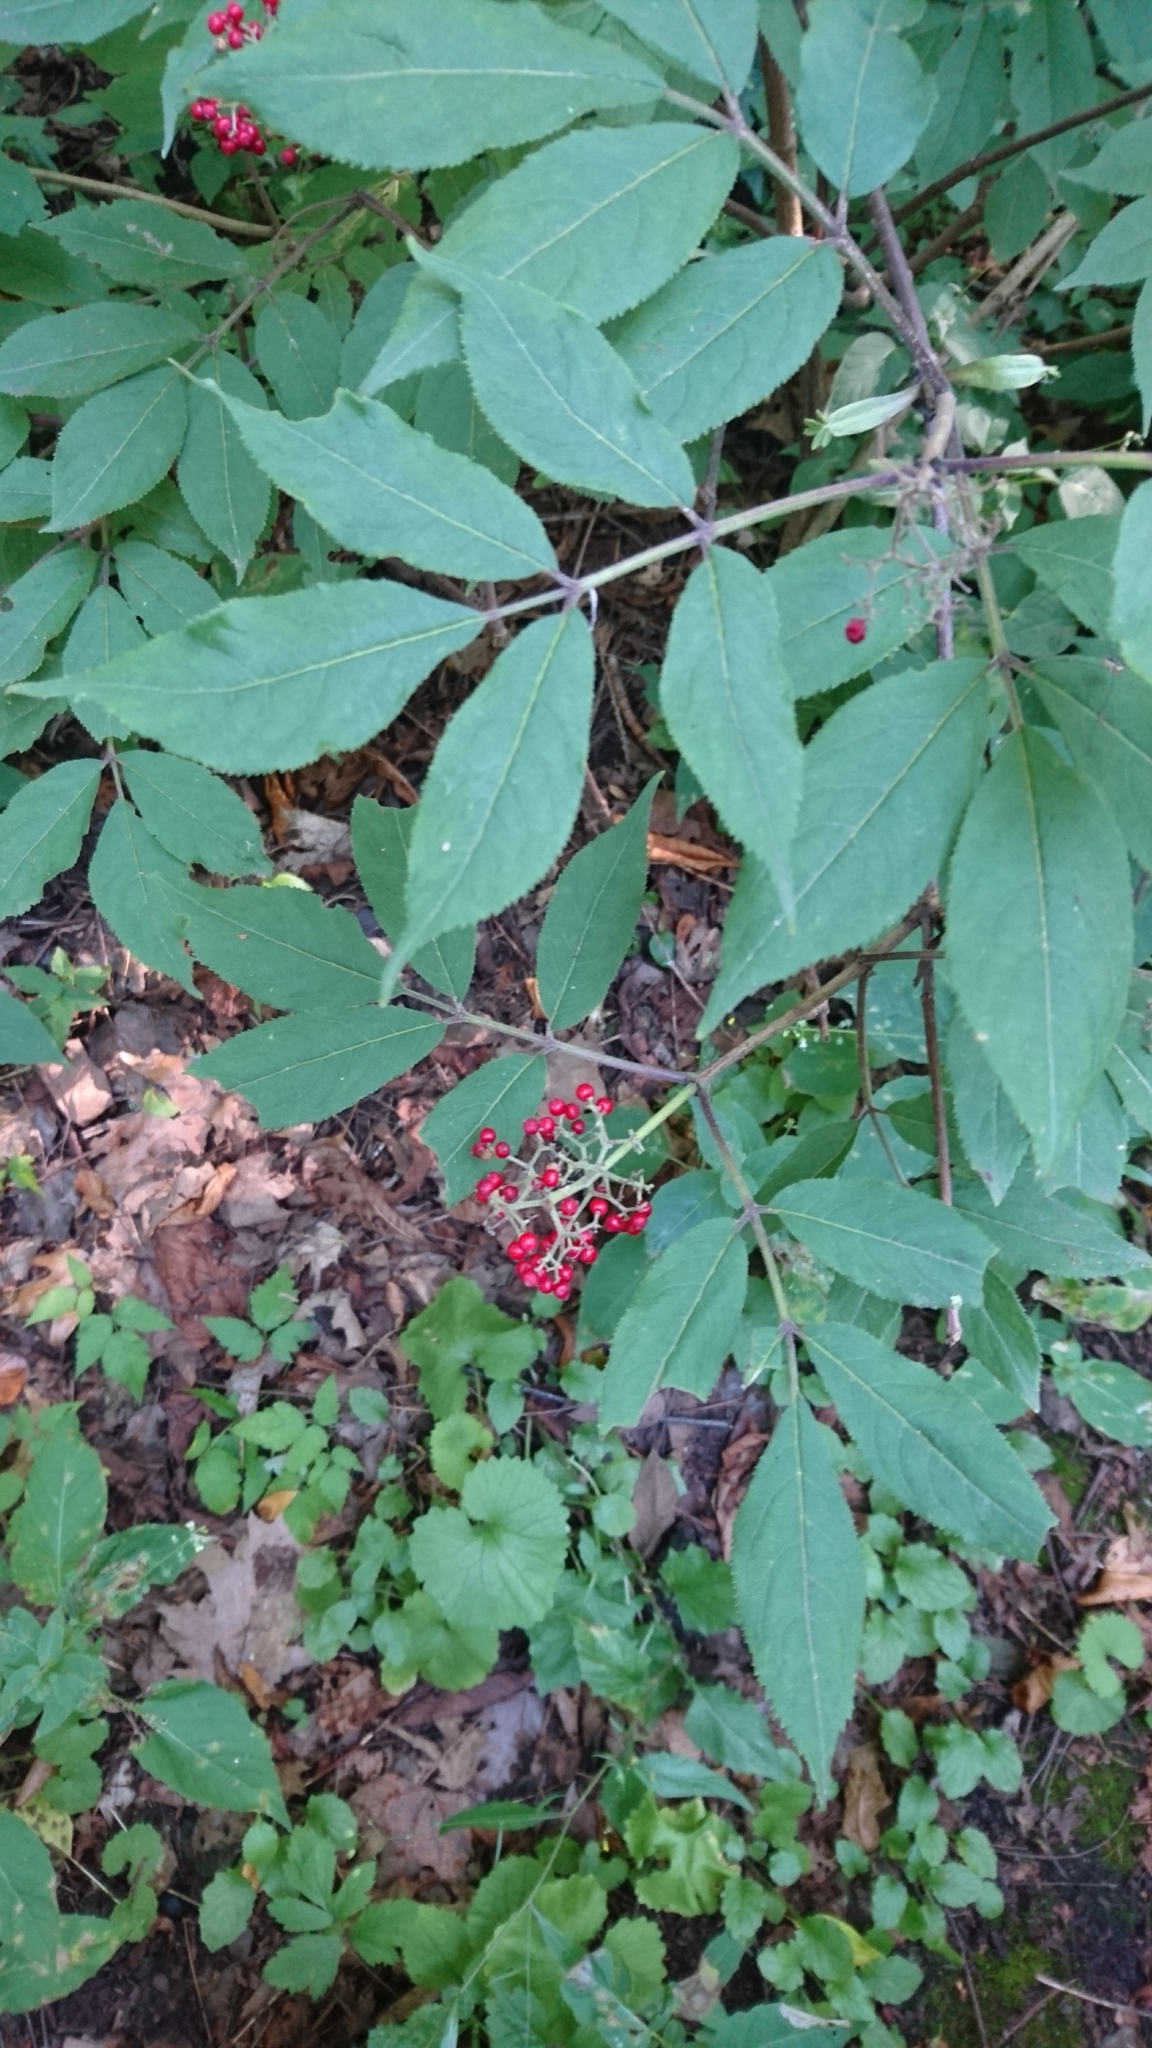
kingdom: Plantae
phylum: Tracheophyta
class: Magnoliopsida
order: Dipsacales
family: Viburnaceae
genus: Sambucus
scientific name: Sambucus racemosa
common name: Red-berried elder
